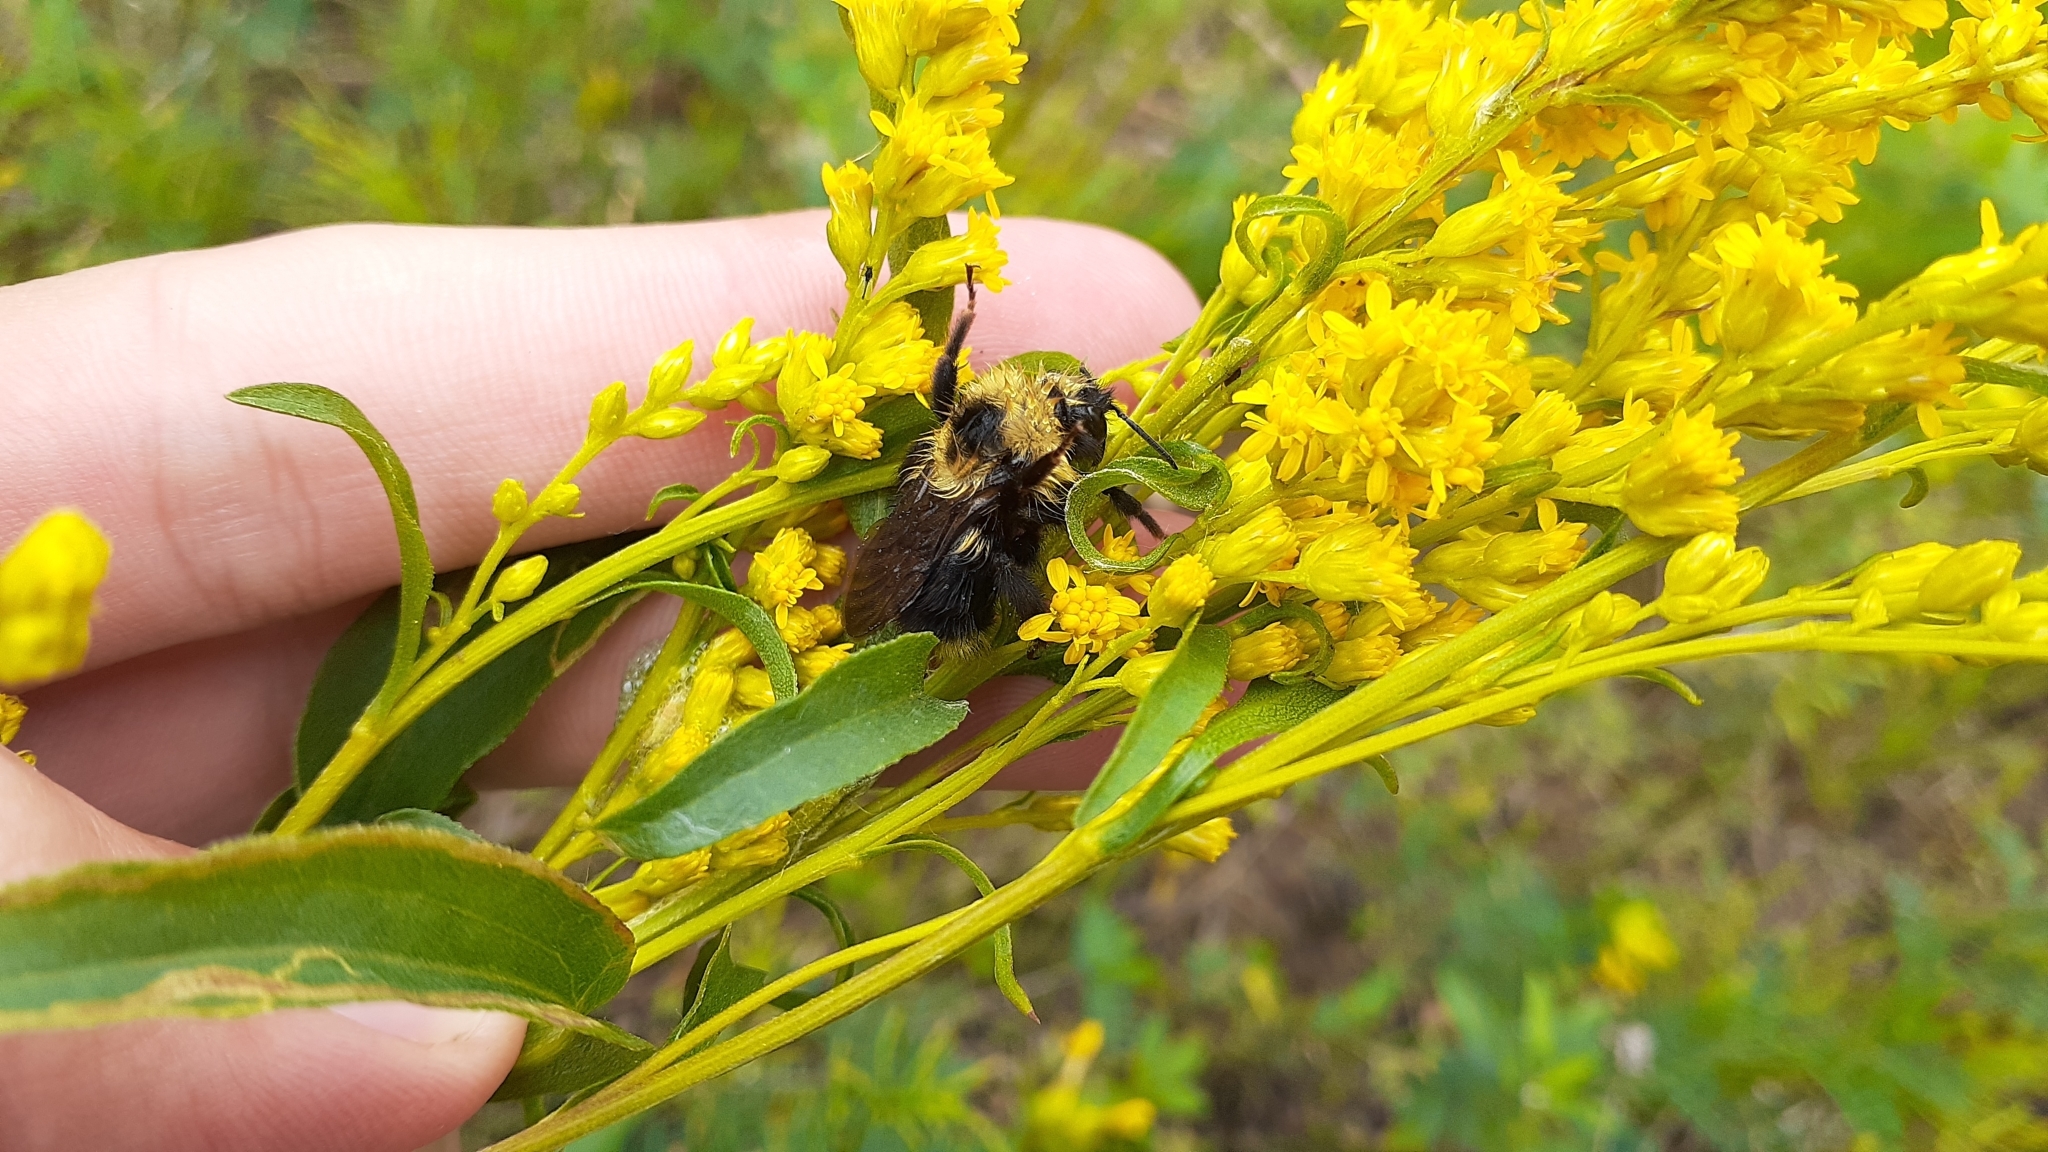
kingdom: Animalia
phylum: Arthropoda
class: Insecta
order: Hymenoptera
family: Apidae
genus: Bombus
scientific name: Bombus flavidus
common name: Fernald cuckoo bumble bee
